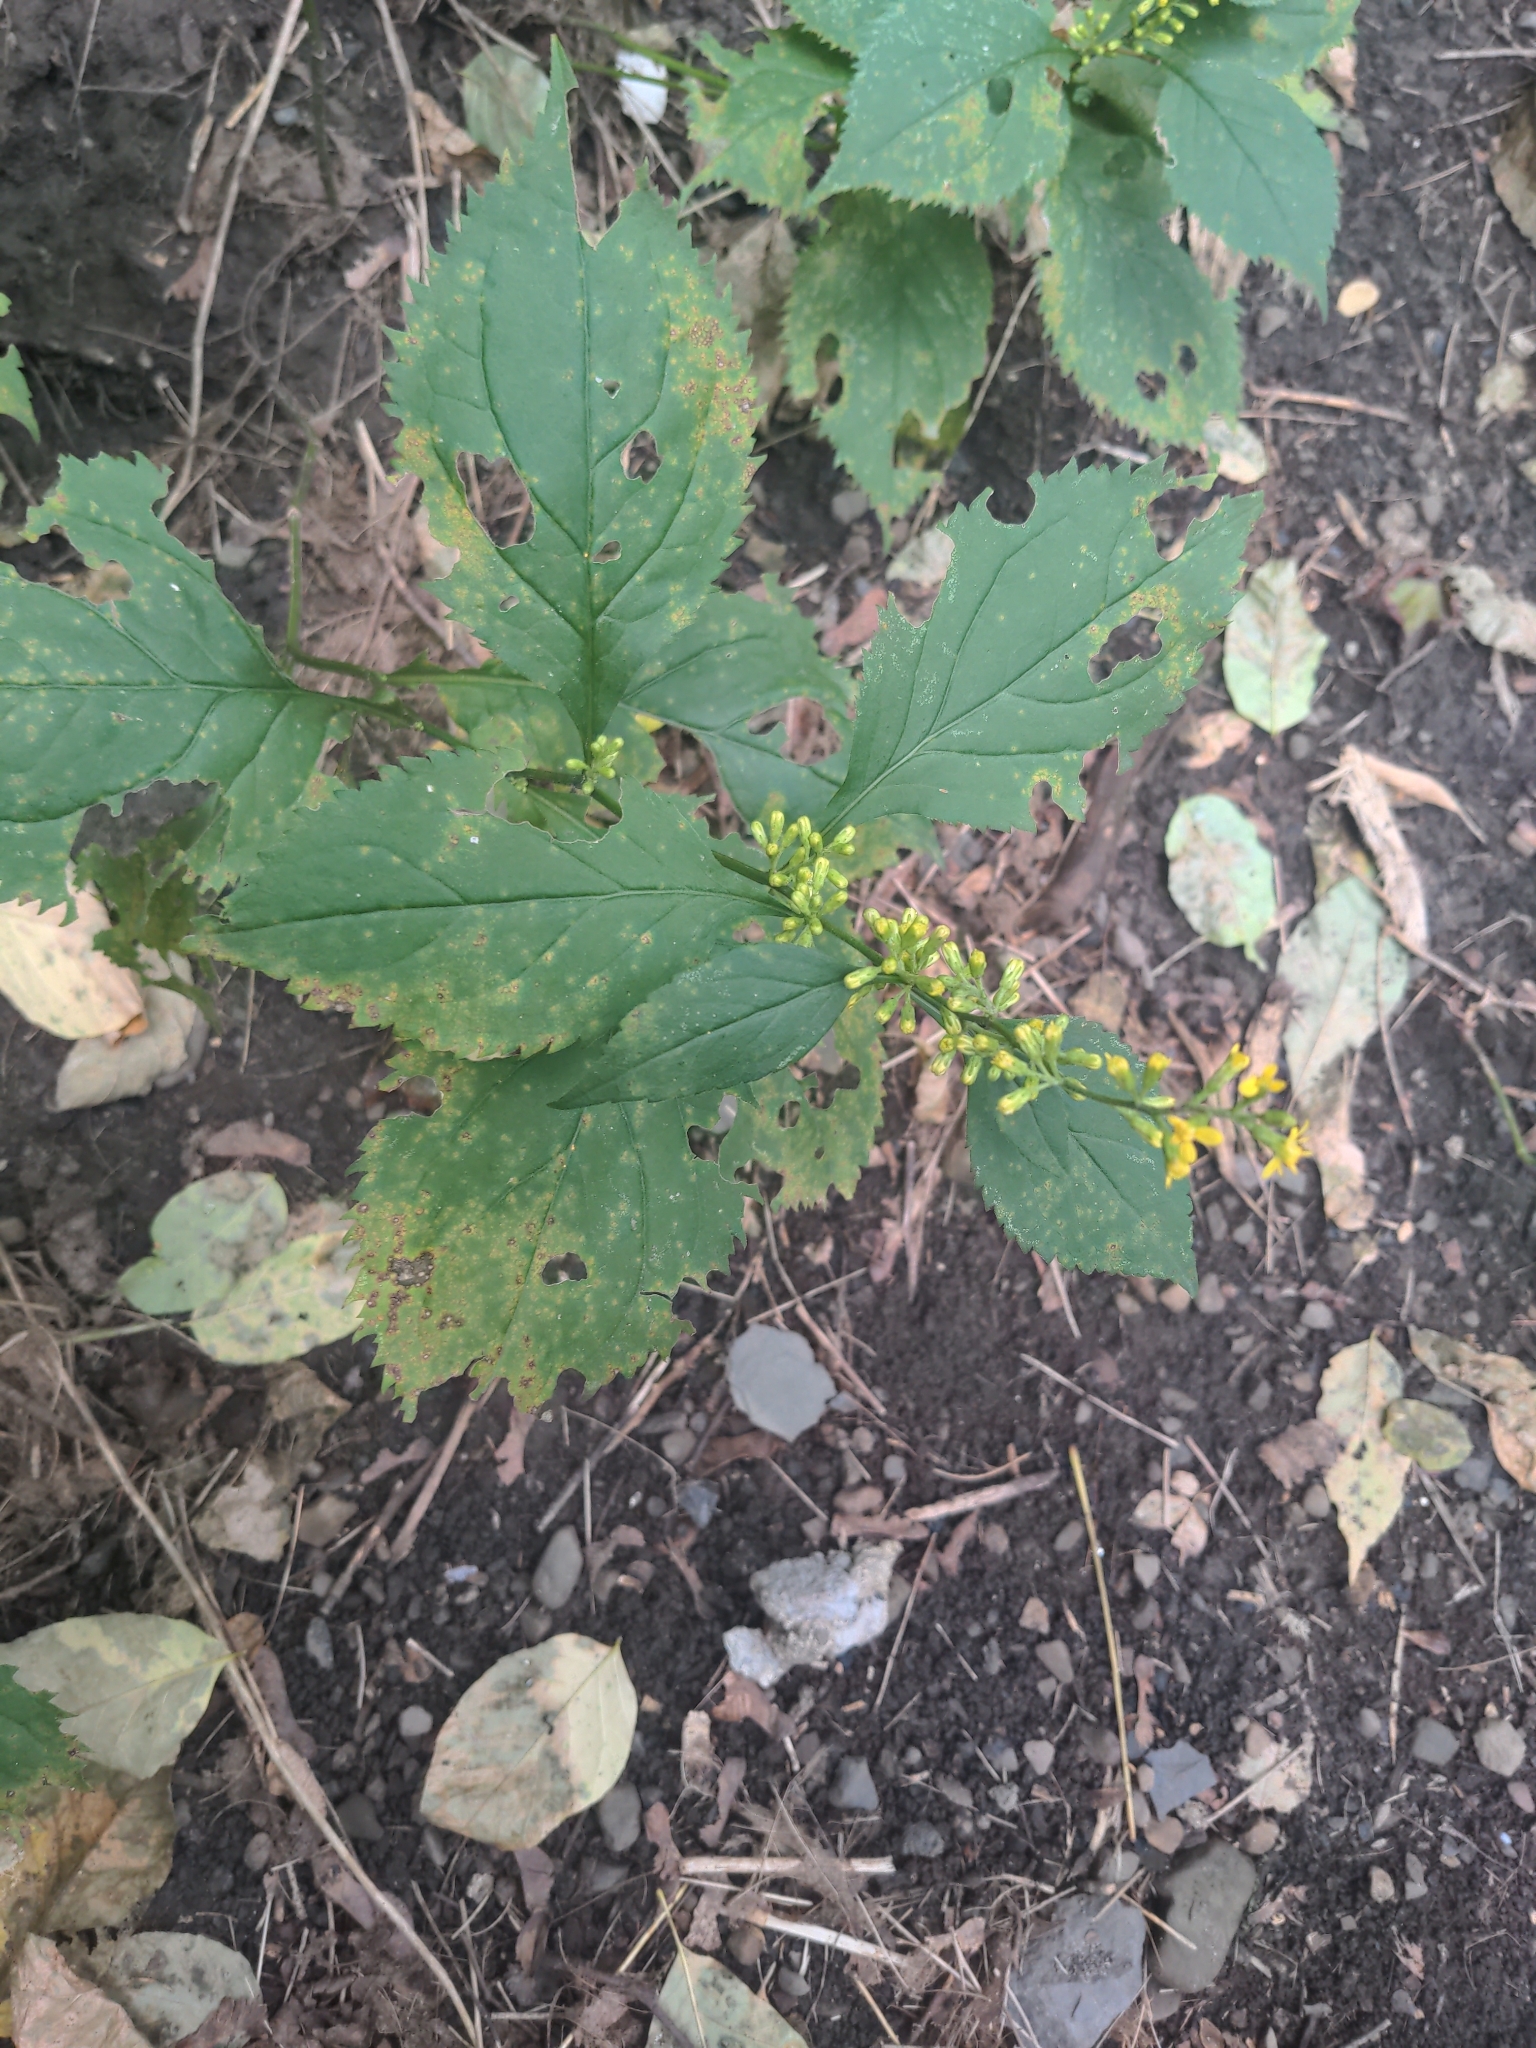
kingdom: Plantae
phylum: Tracheophyta
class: Magnoliopsida
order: Asterales
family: Asteraceae
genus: Solidago
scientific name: Solidago flexicaulis
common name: Zig-zag goldenrod
